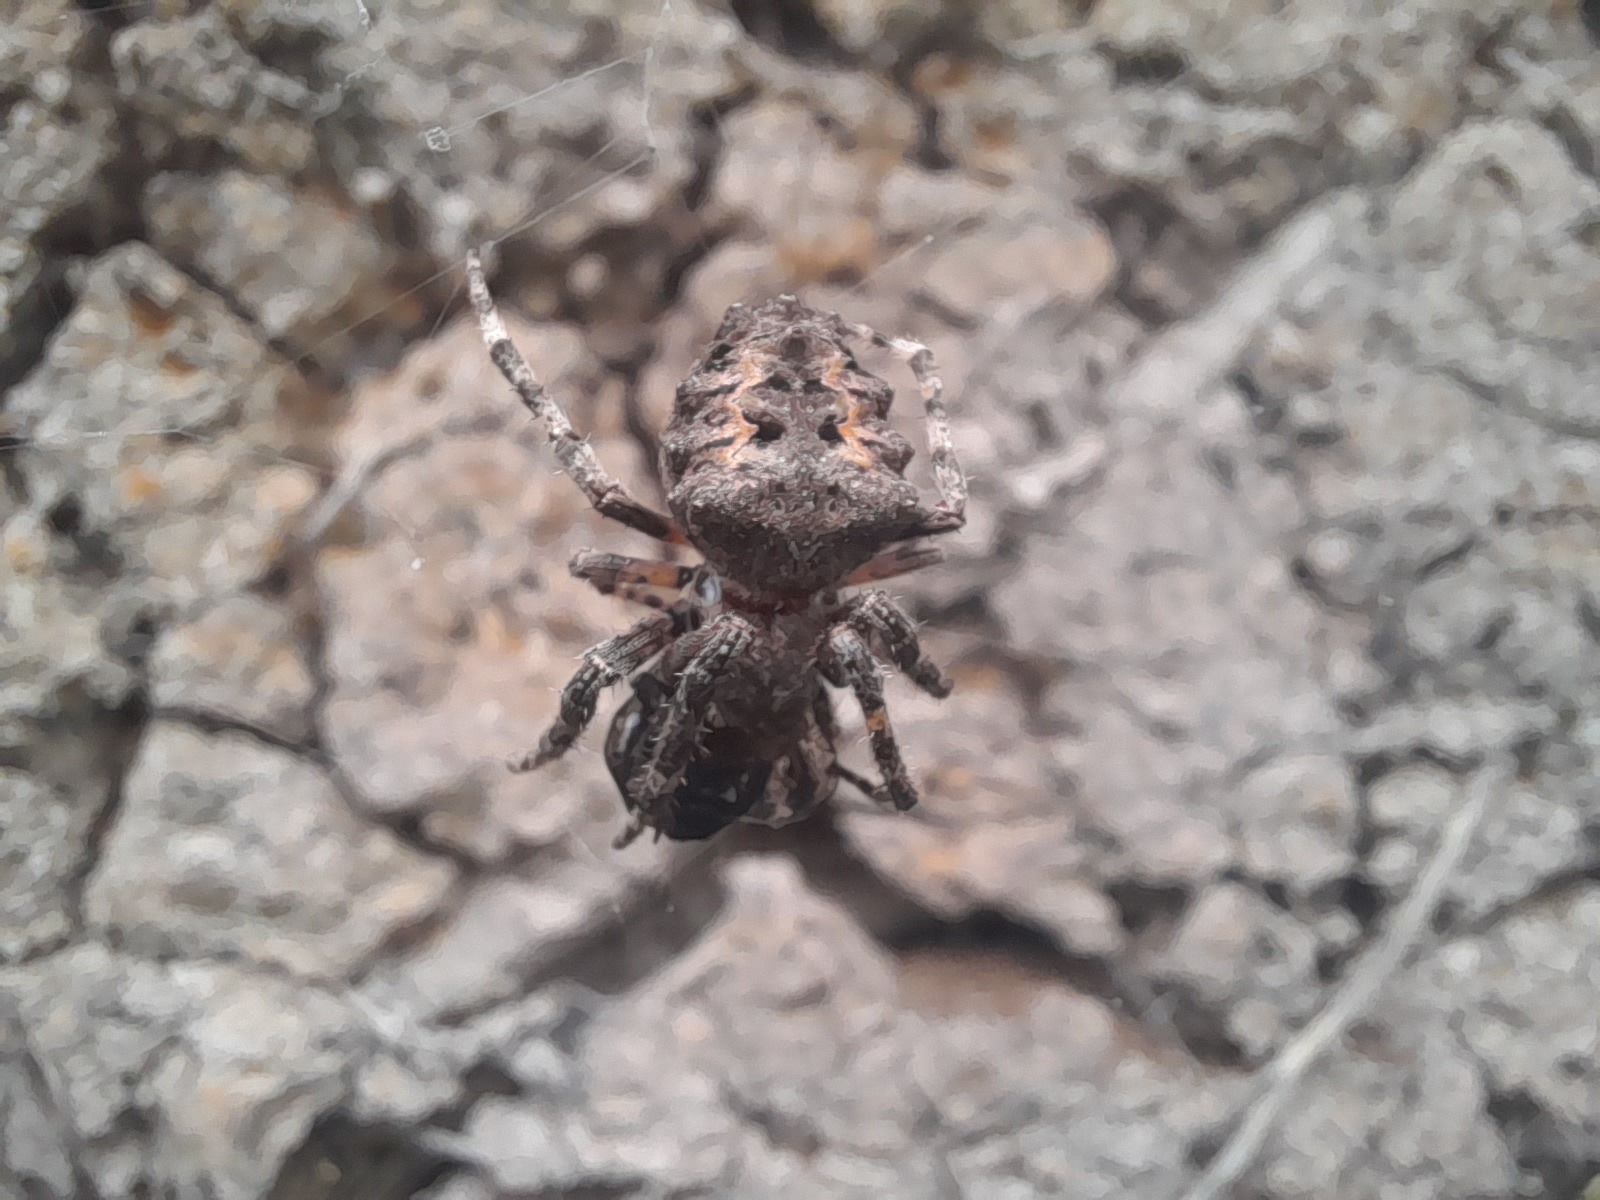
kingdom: Animalia
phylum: Arthropoda
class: Arachnida
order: Araneae
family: Araneidae
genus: Parawixia
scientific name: Parawixia audax
